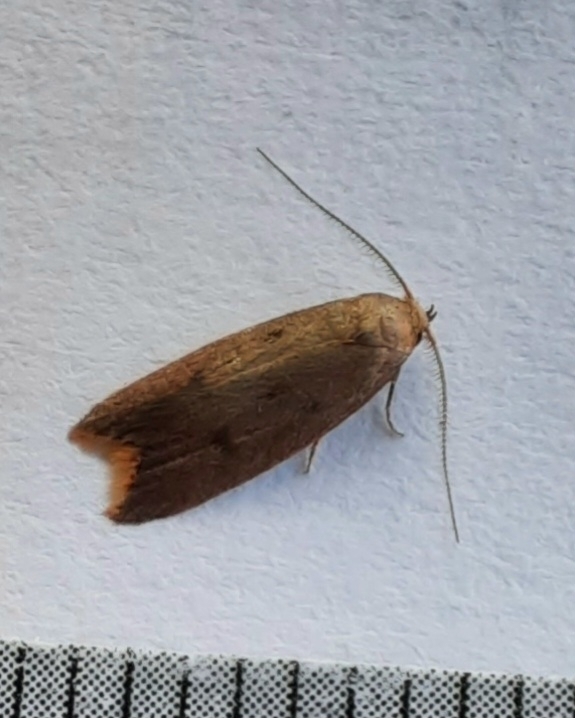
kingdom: Animalia
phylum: Arthropoda
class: Insecta
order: Lepidoptera
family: Oecophoridae
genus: Tachystola
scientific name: Tachystola acroxantha
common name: Ruddy streak
